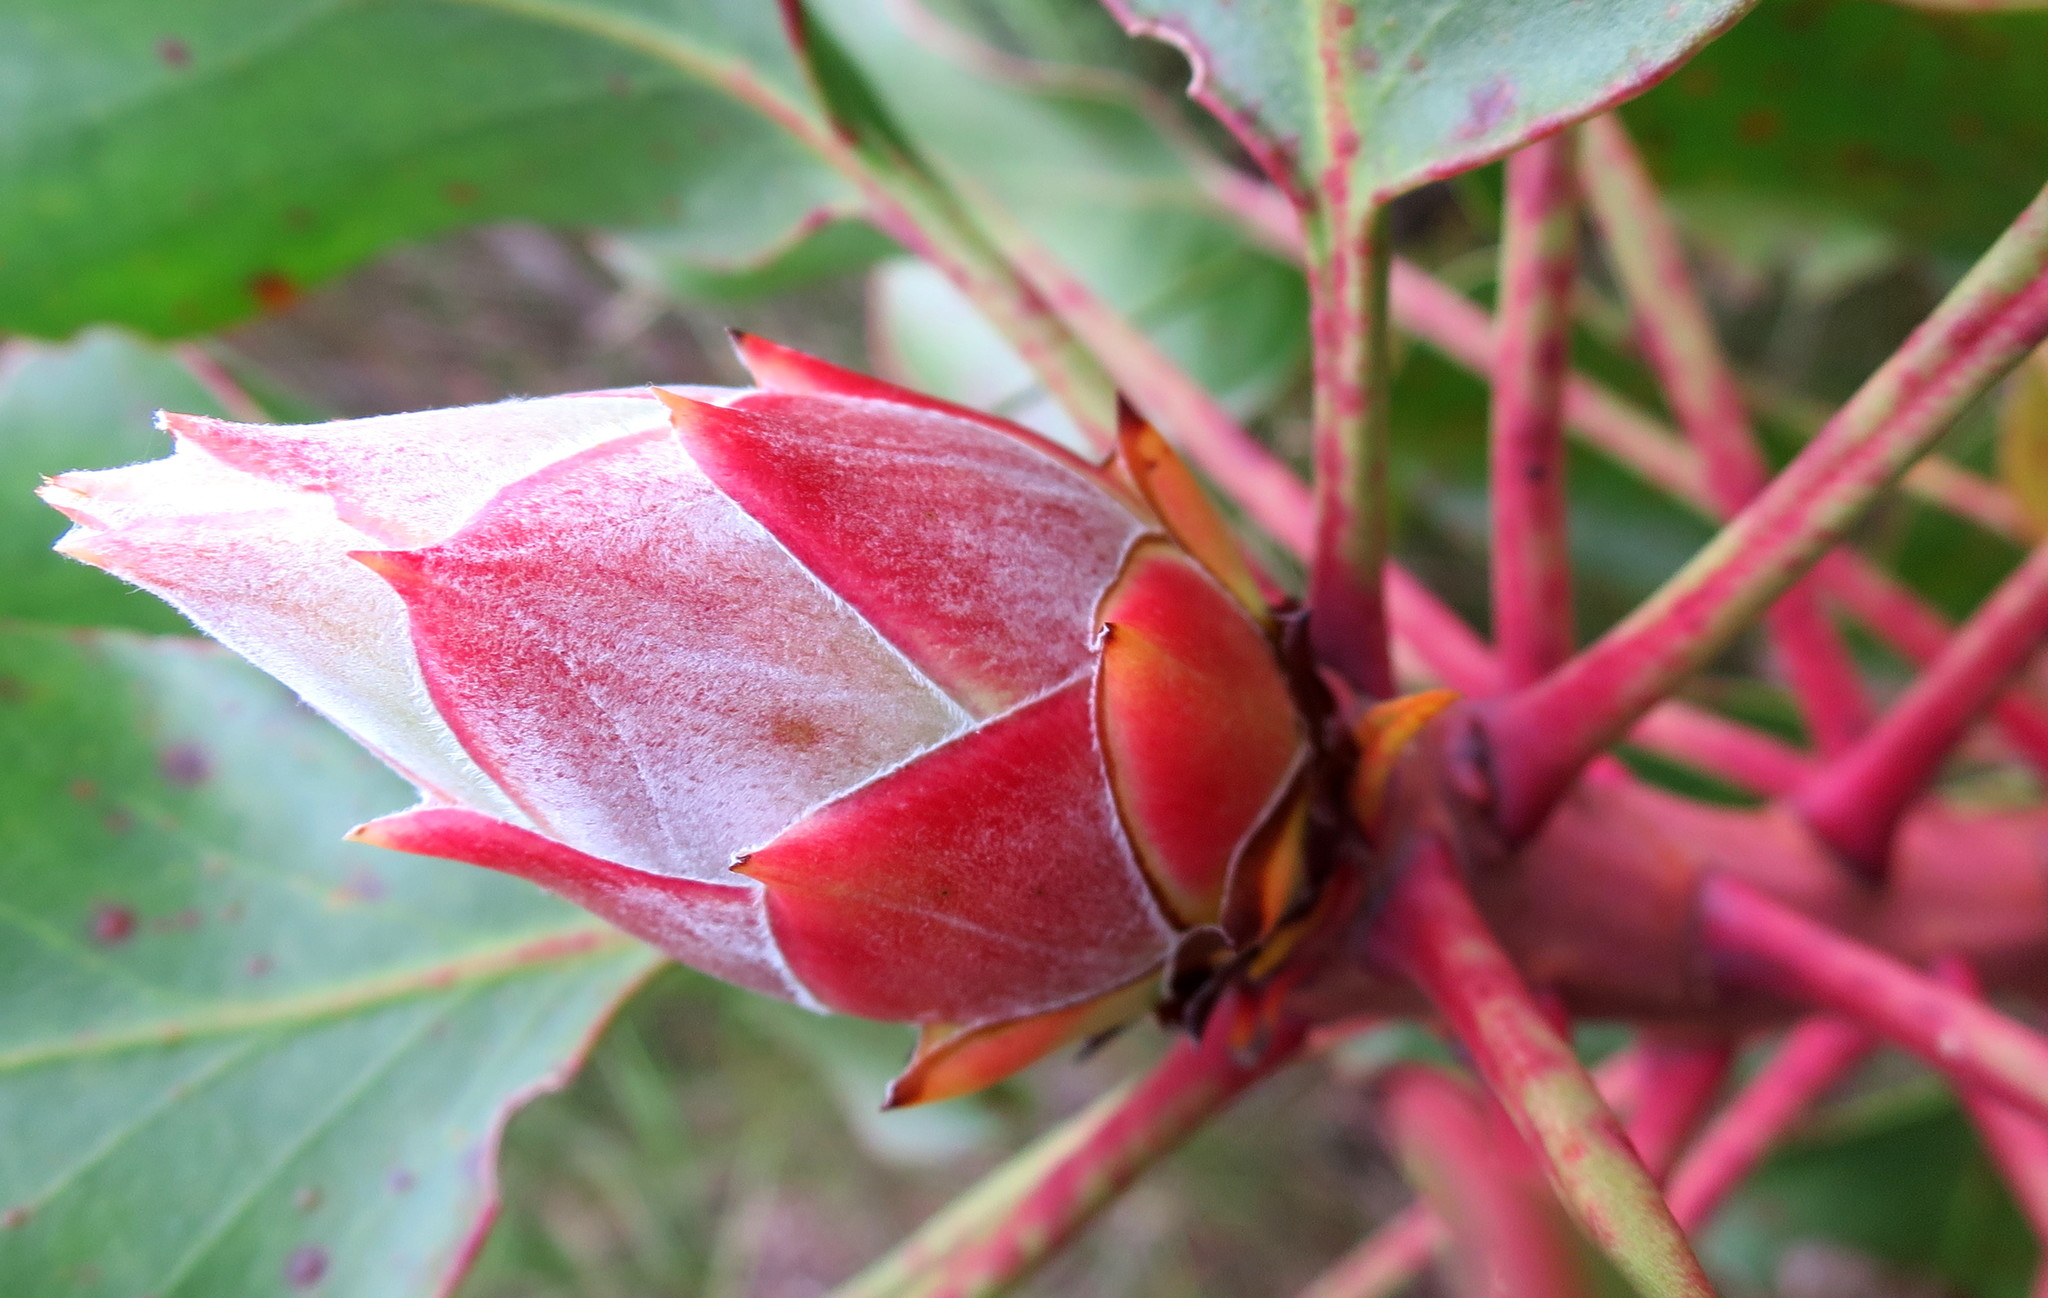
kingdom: Plantae
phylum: Tracheophyta
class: Magnoliopsida
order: Proteales
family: Proteaceae
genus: Protea
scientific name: Protea cynaroides
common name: King protea
